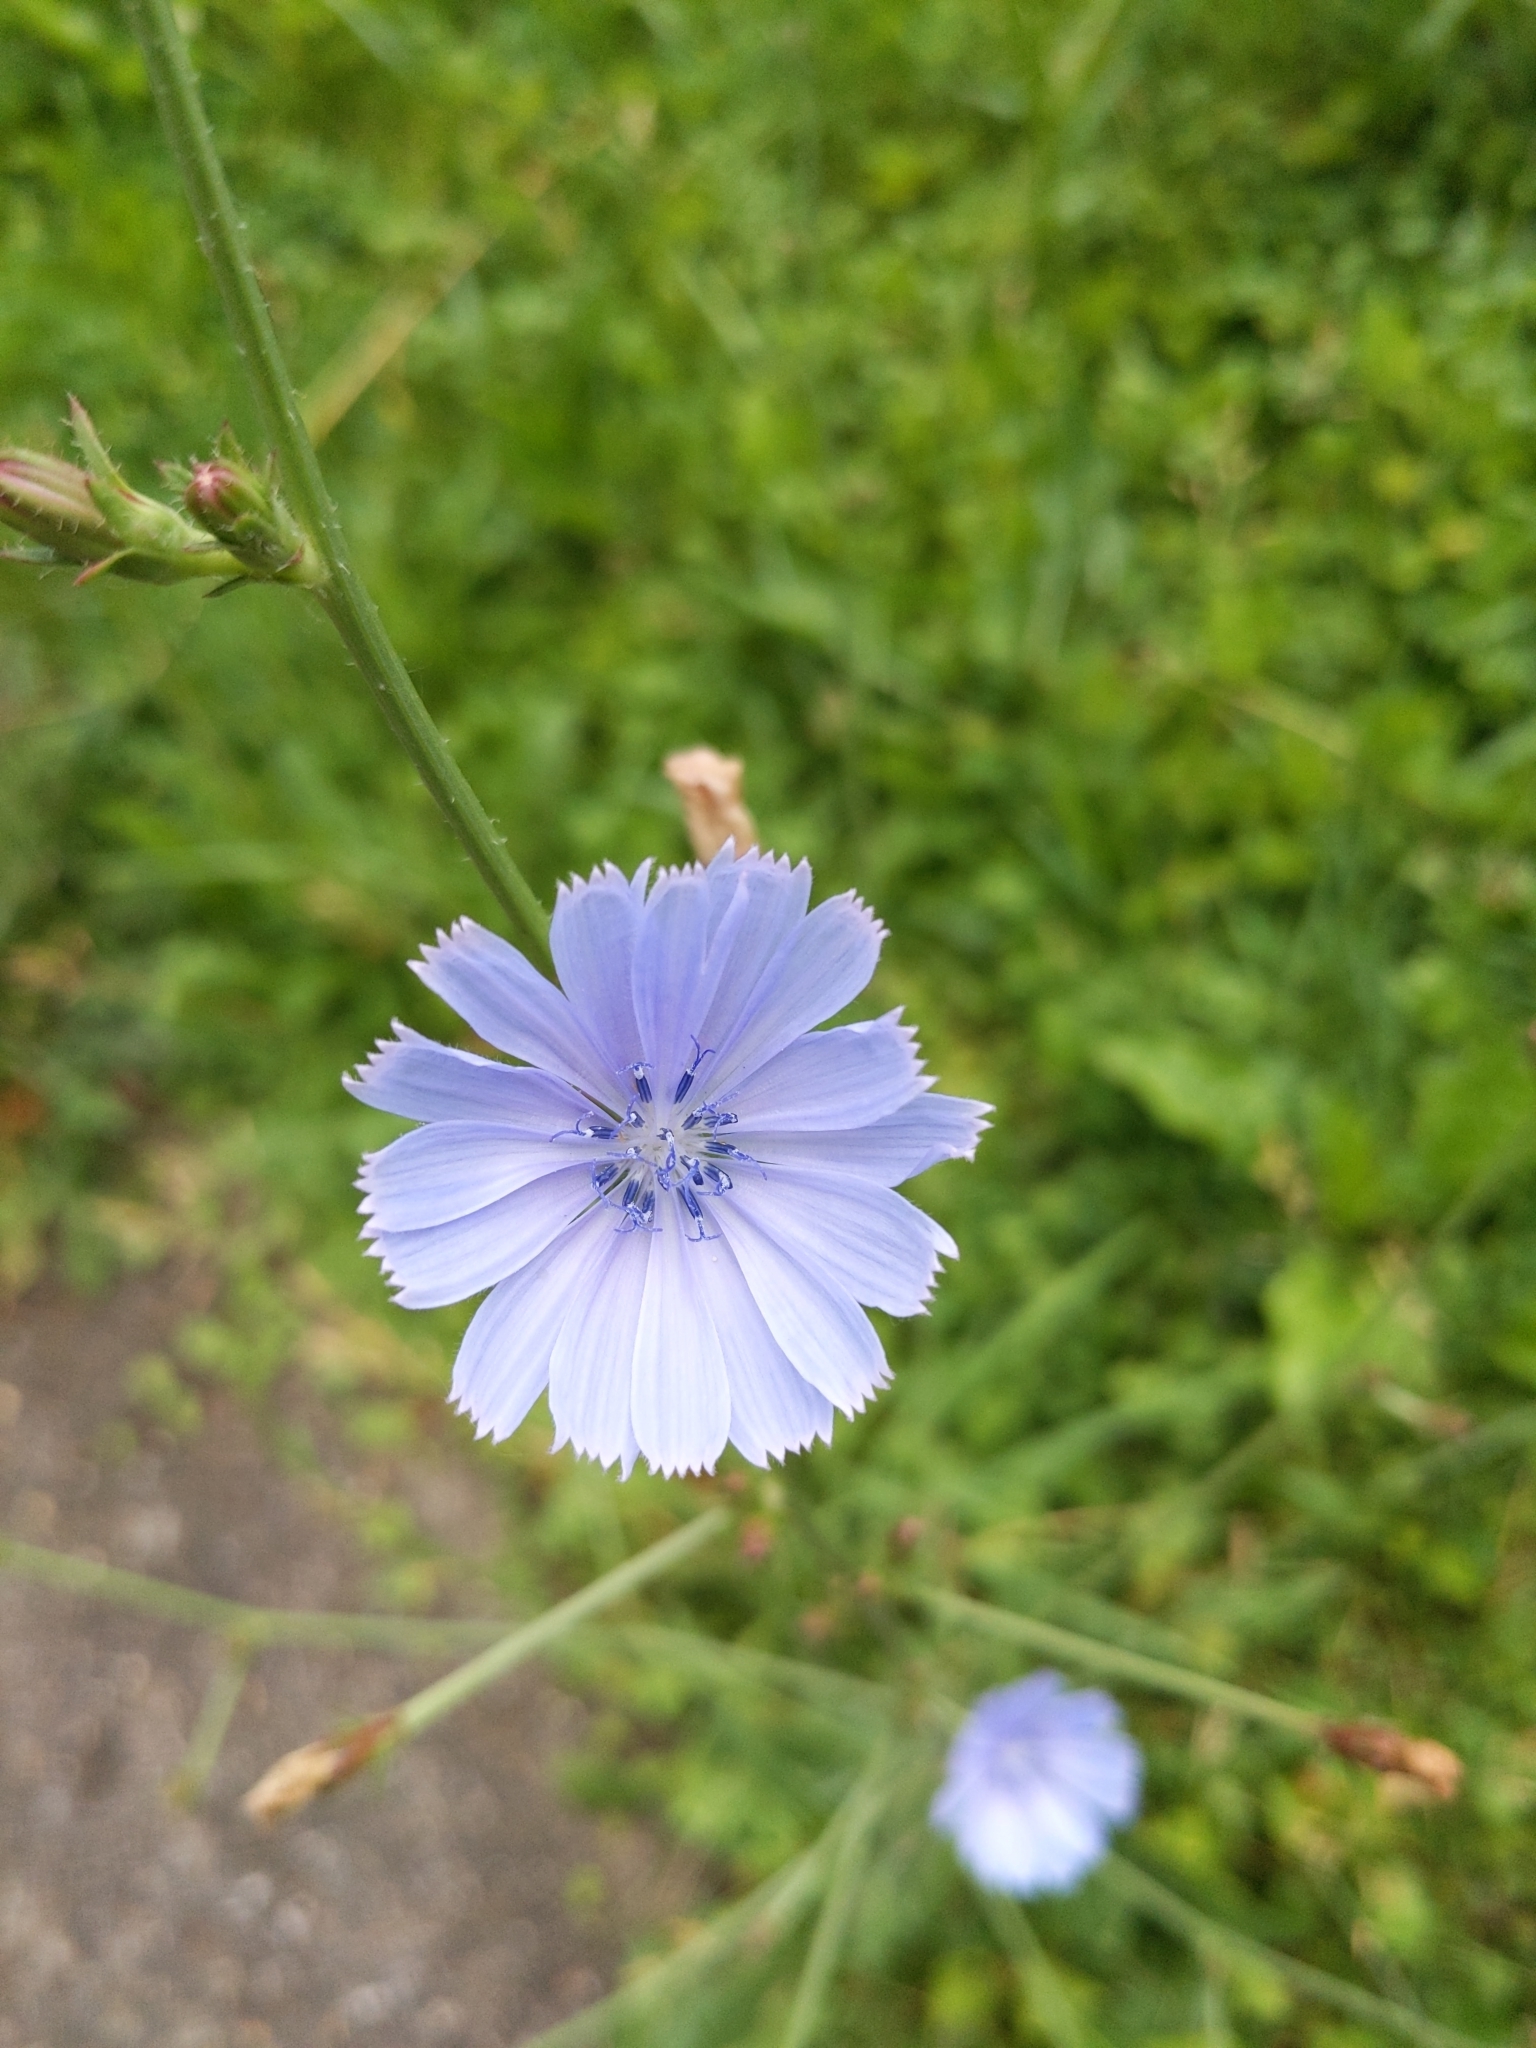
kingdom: Plantae
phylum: Tracheophyta
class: Magnoliopsida
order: Asterales
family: Asteraceae
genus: Cichorium
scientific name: Cichorium intybus
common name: Chicory
